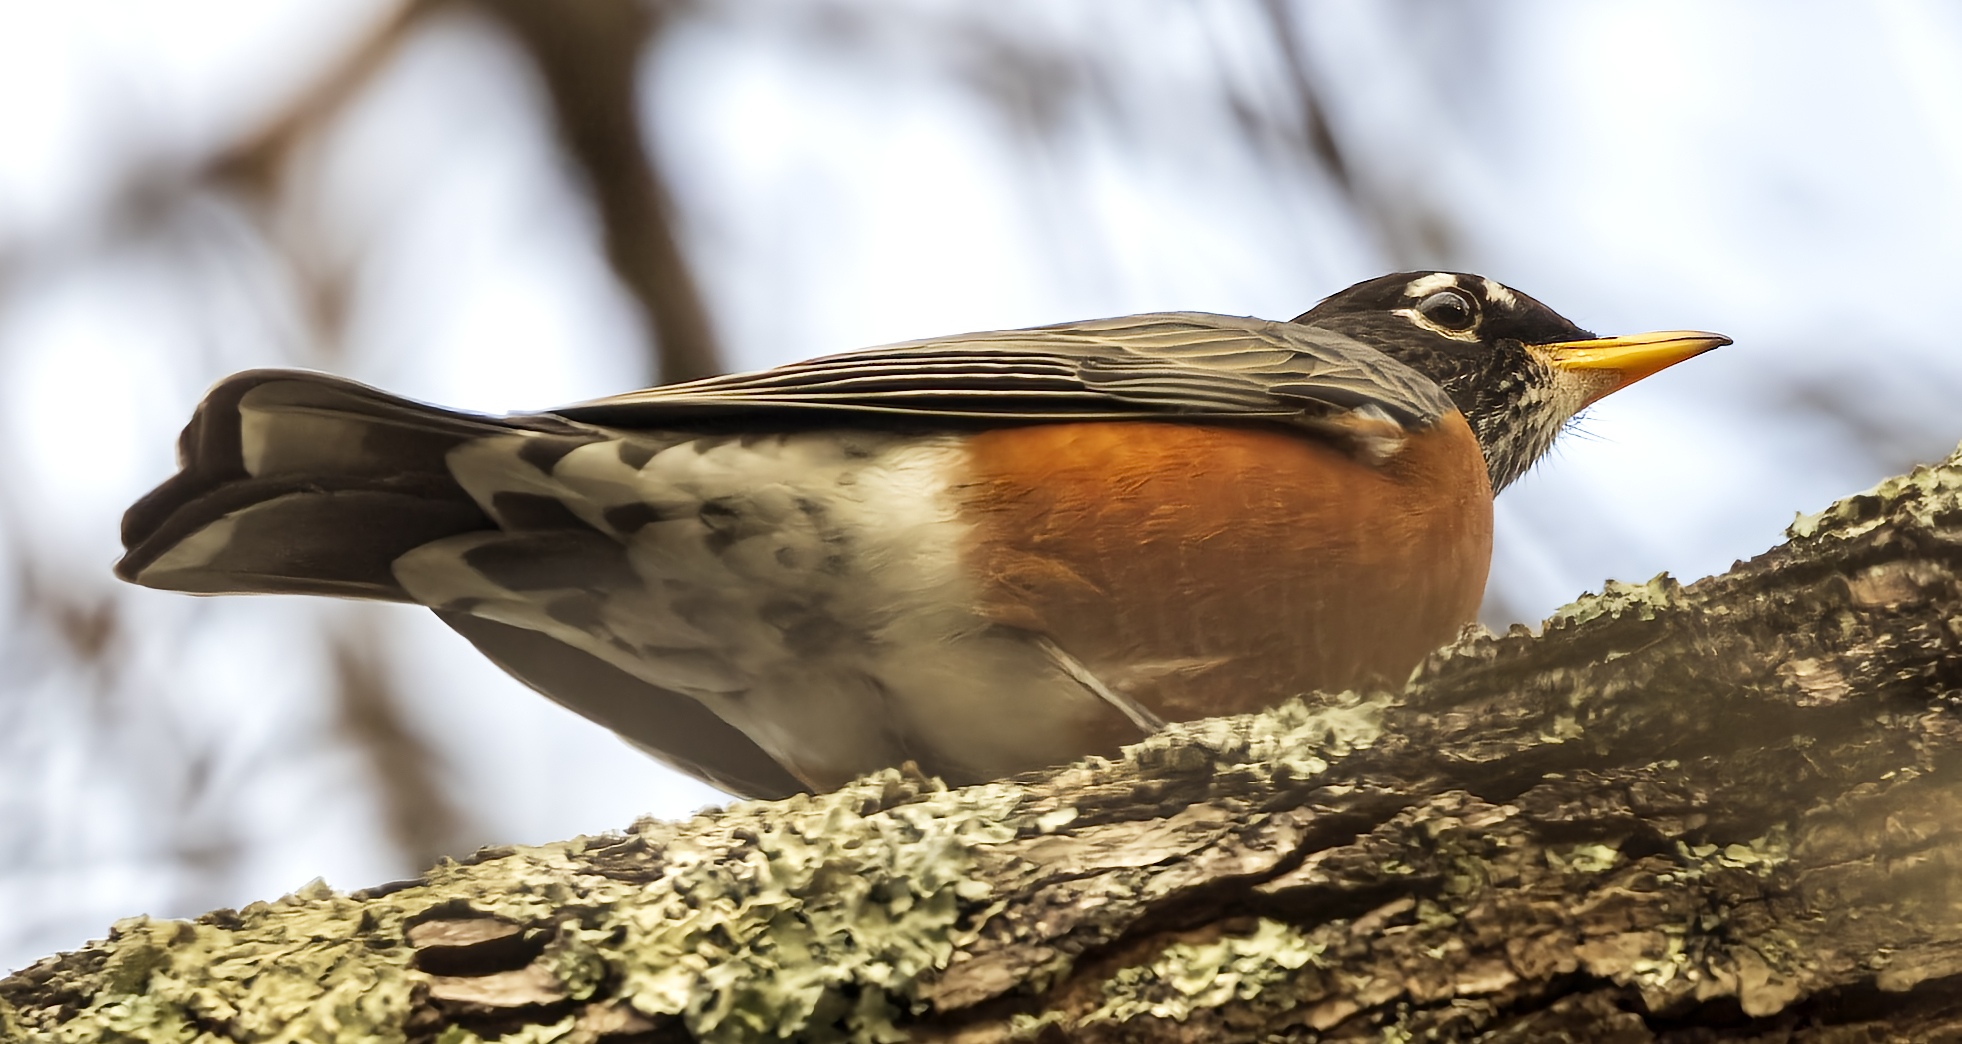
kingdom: Animalia
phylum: Chordata
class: Aves
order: Passeriformes
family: Turdidae
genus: Turdus
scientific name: Turdus migratorius
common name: American robin
